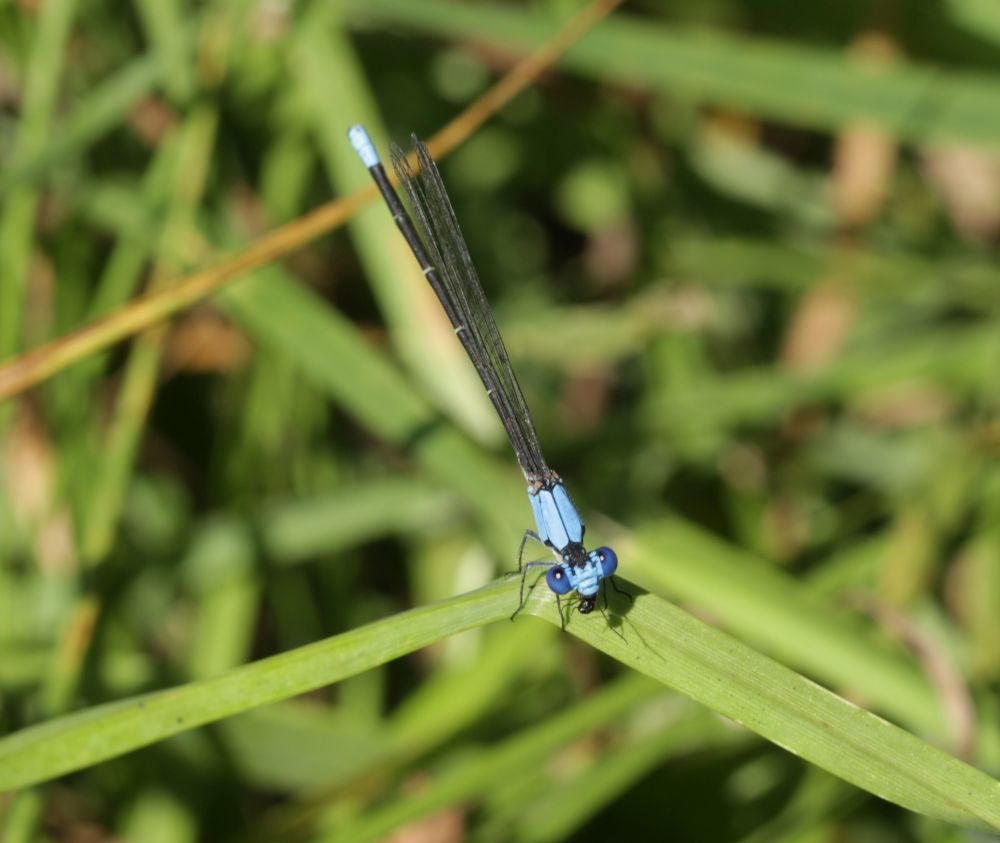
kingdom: Animalia
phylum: Arthropoda
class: Insecta
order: Odonata
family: Coenagrionidae
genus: Argia
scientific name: Argia apicalis
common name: Blue-fronted dancer
